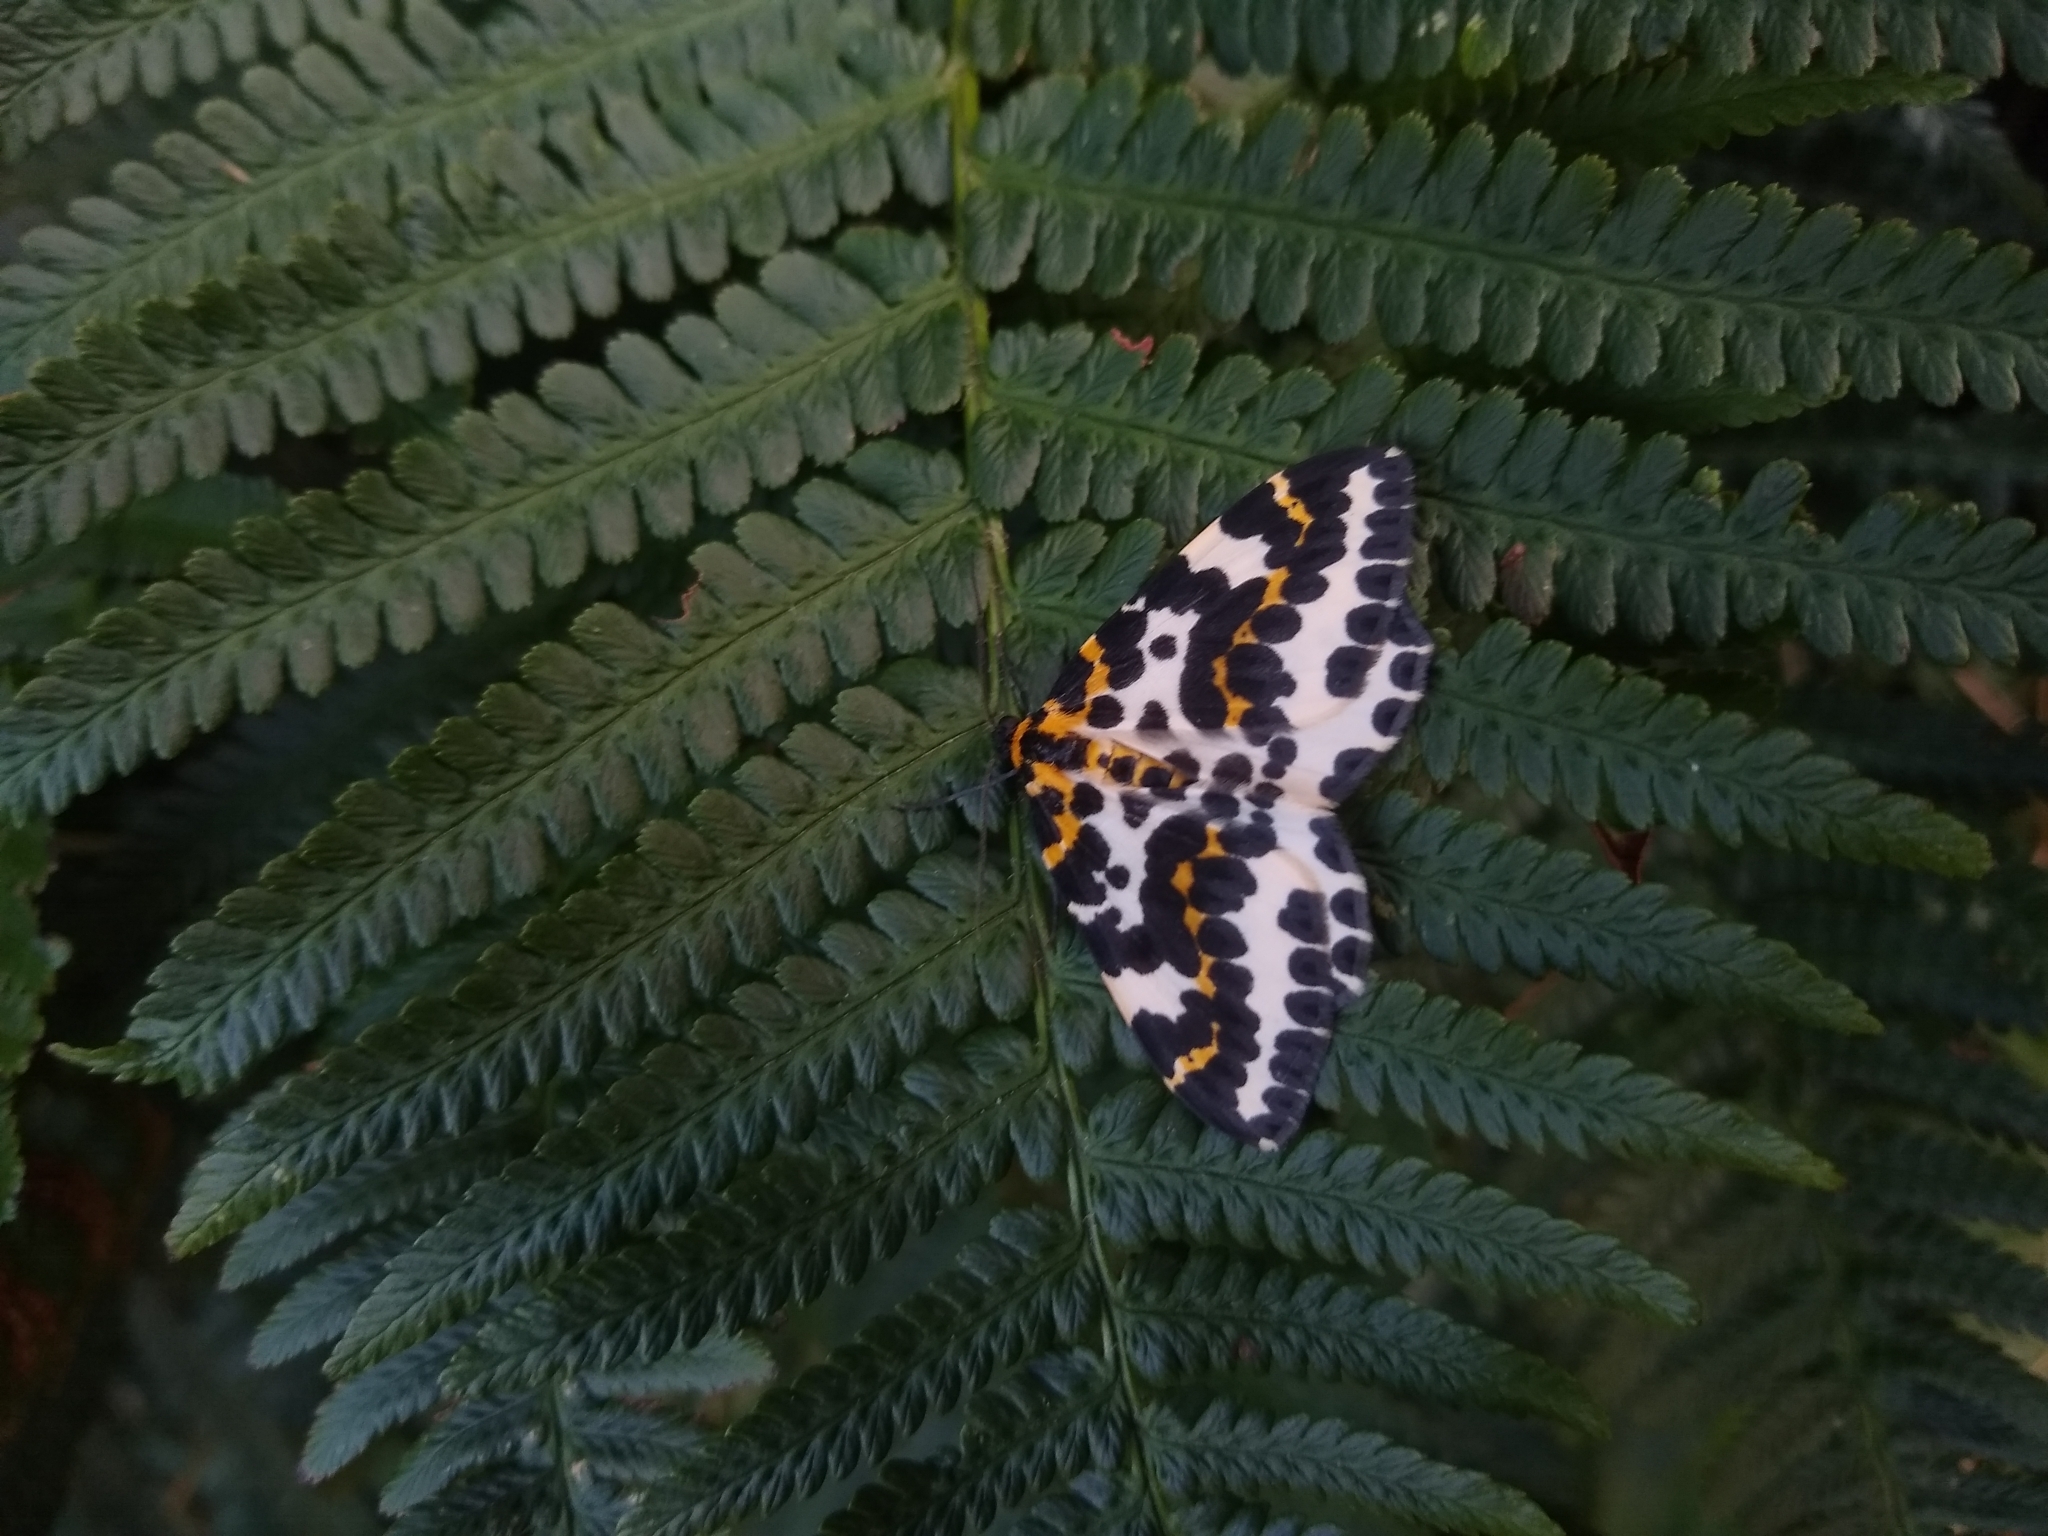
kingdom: Animalia
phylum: Arthropoda
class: Insecta
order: Lepidoptera
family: Geometridae
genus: Abraxas
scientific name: Abraxas grossulariata
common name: Magpie
